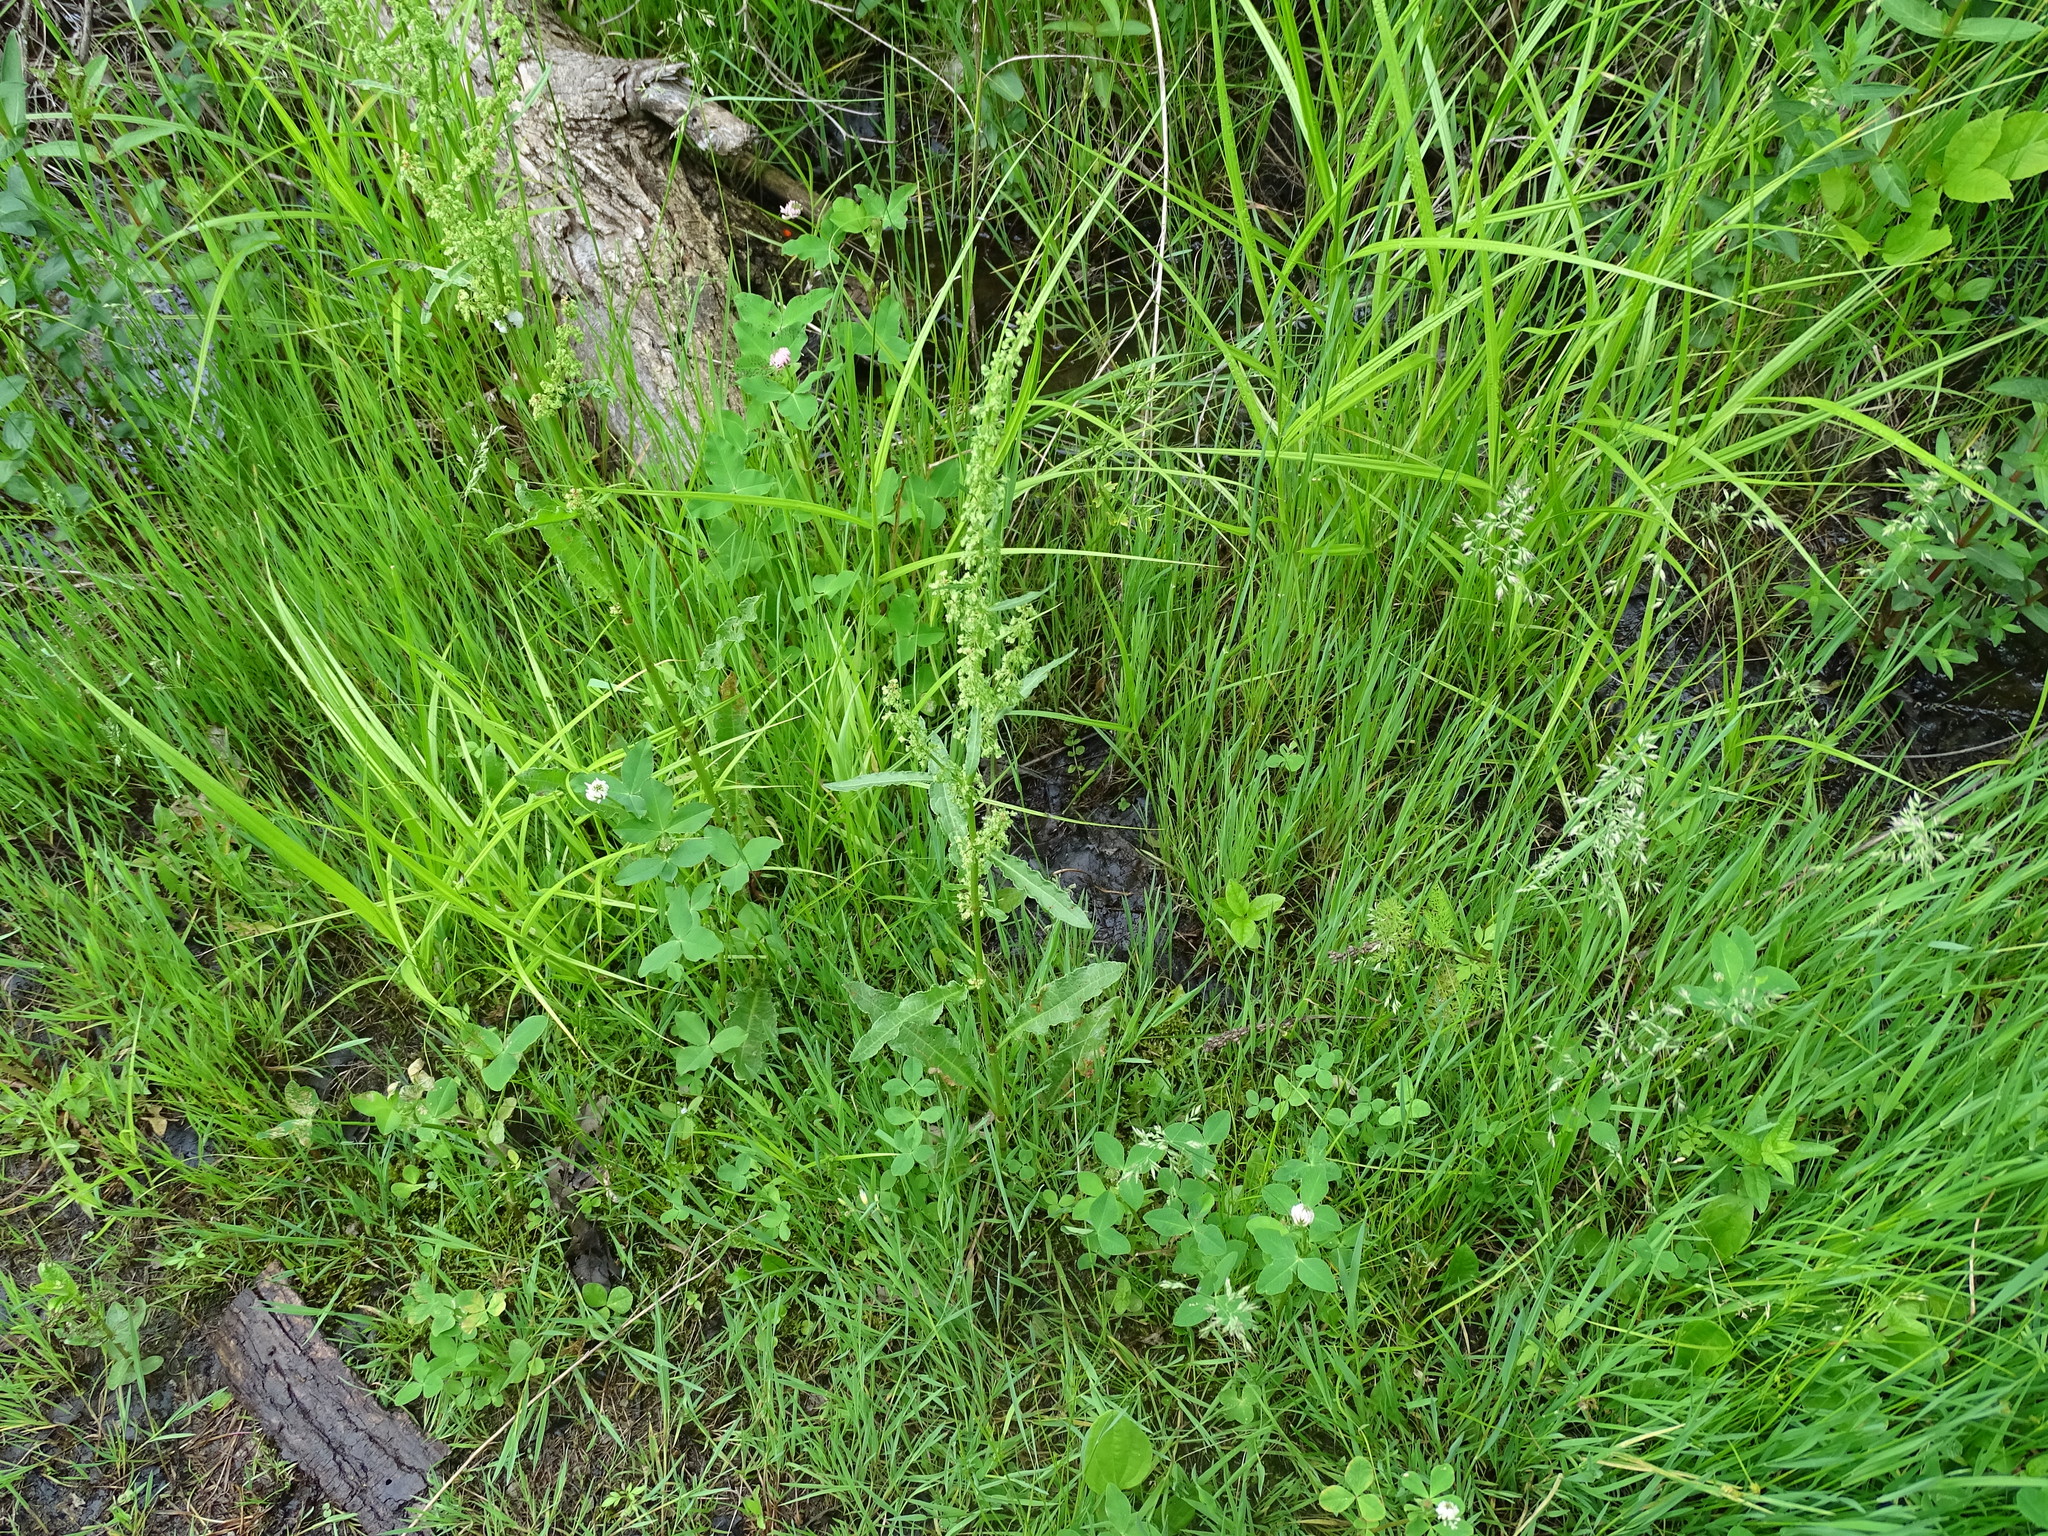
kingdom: Plantae
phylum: Tracheophyta
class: Magnoliopsida
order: Caryophyllales
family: Polygonaceae
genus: Rumex
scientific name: Rumex crispus
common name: Curled dock
